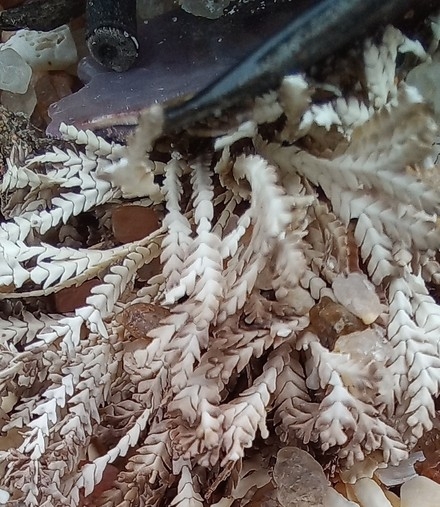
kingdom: Plantae
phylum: Rhodophyta
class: Florideophyceae
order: Corallinales
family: Corallinaceae
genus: Jania
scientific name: Jania cultrata
